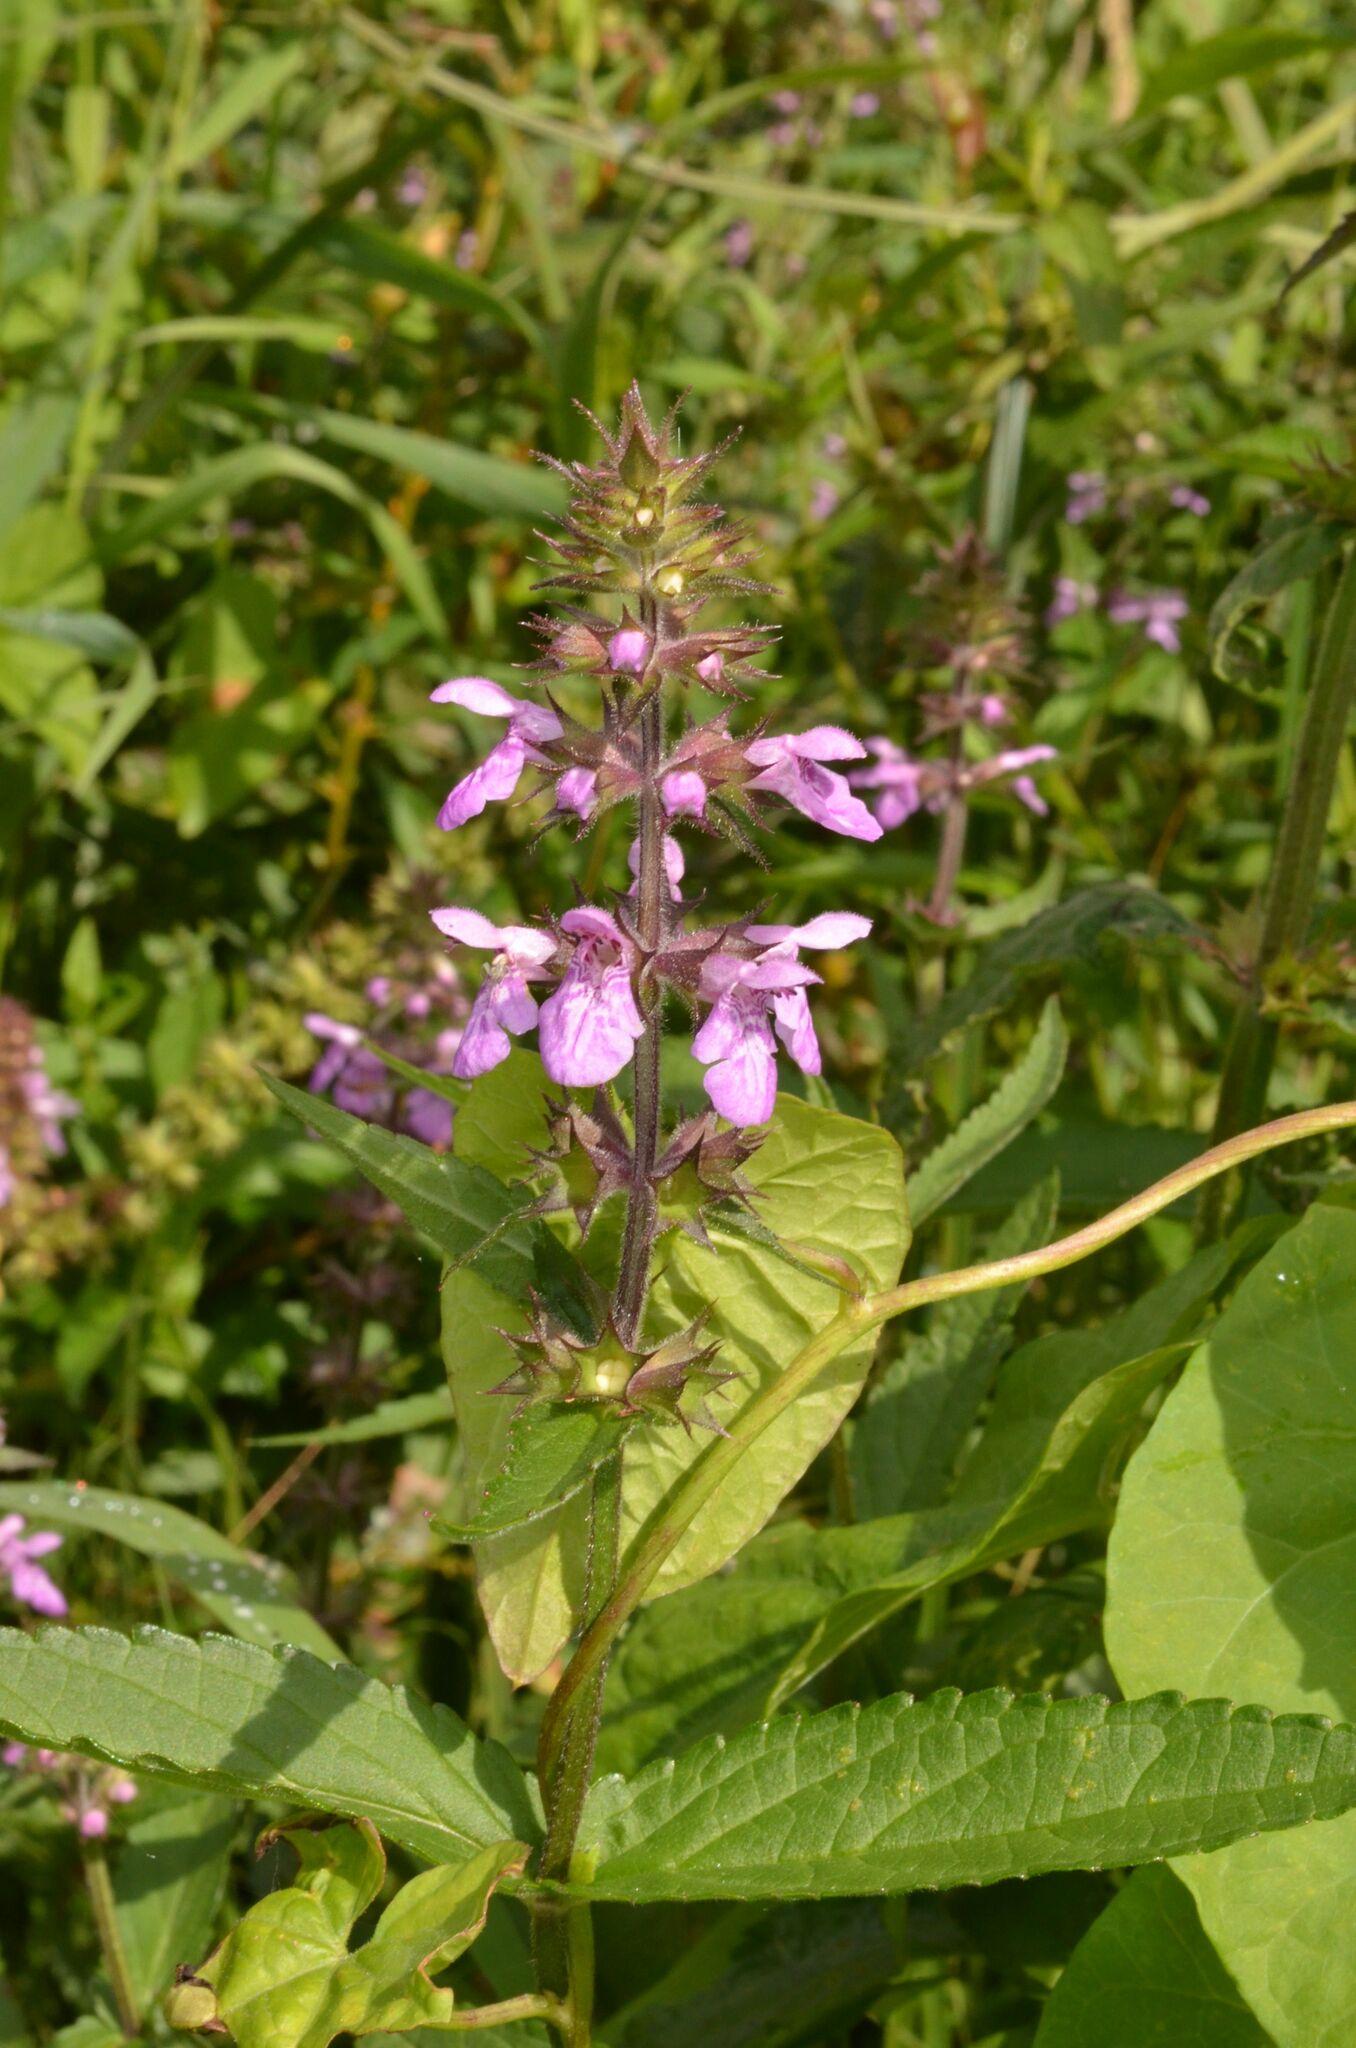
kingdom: Plantae
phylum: Tracheophyta
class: Magnoliopsida
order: Lamiales
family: Lamiaceae
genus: Stachys
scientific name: Stachys palustris
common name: Marsh woundwort
